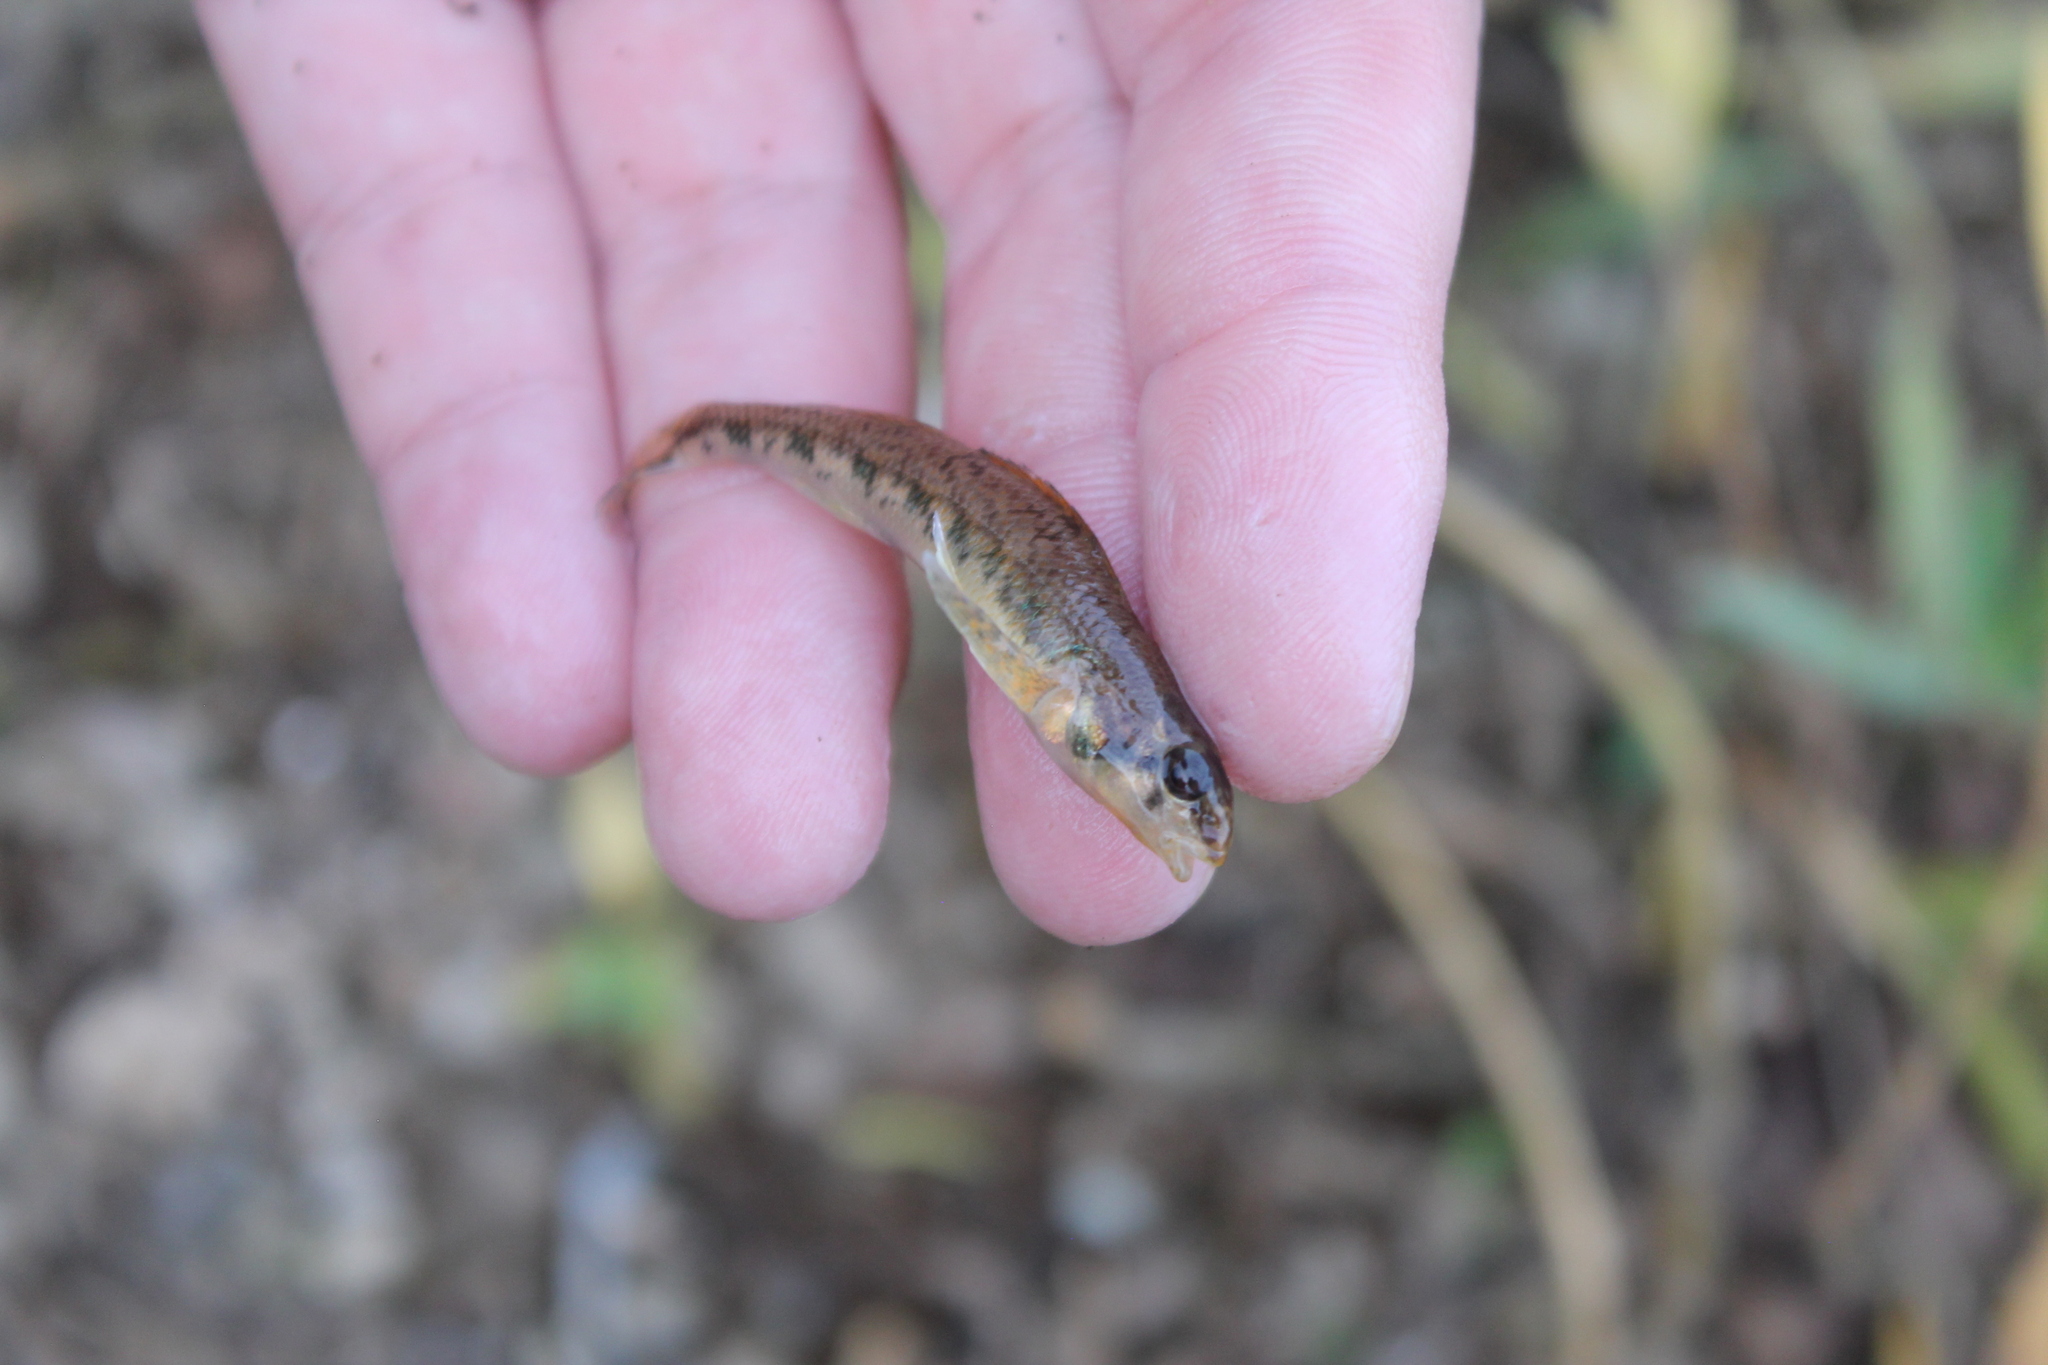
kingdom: Animalia
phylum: Chordata
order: Perciformes
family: Percidae
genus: Etheostoma
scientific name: Etheostoma obama
